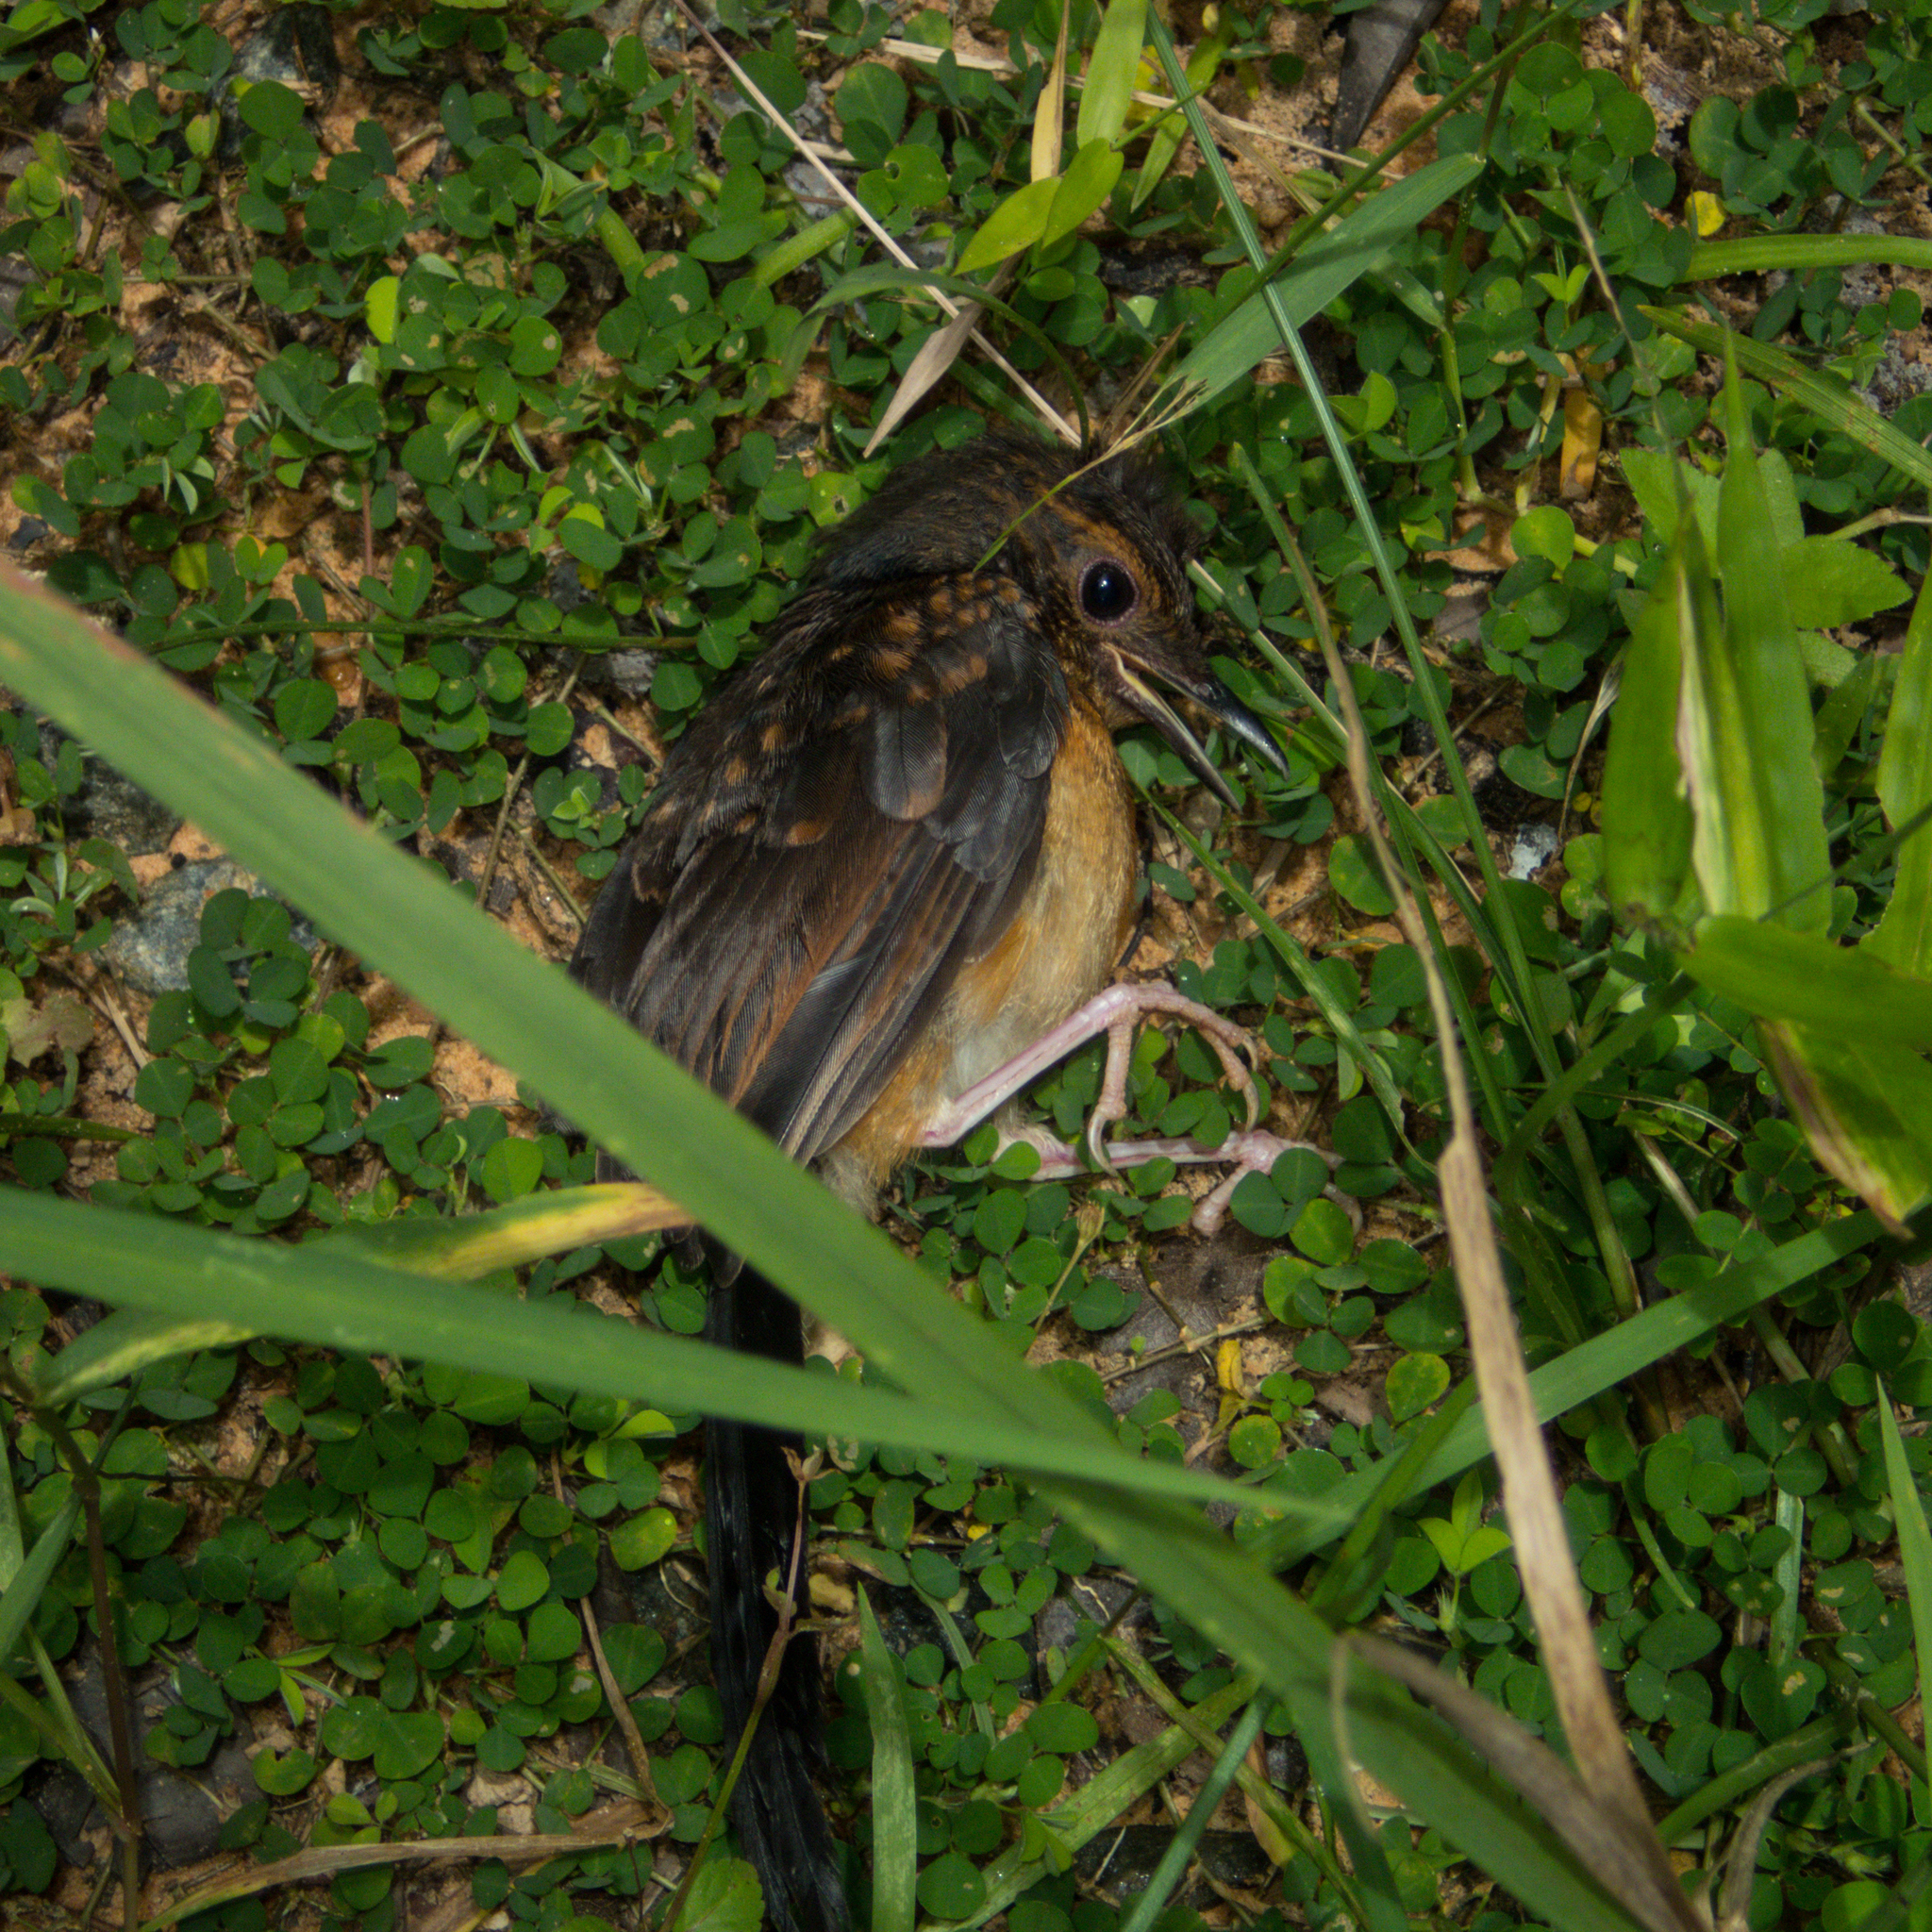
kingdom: Animalia
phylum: Chordata
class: Aves
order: Passeriformes
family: Muscicapidae
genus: Copsychus
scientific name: Copsychus malabaricus
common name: White-rumped shama
